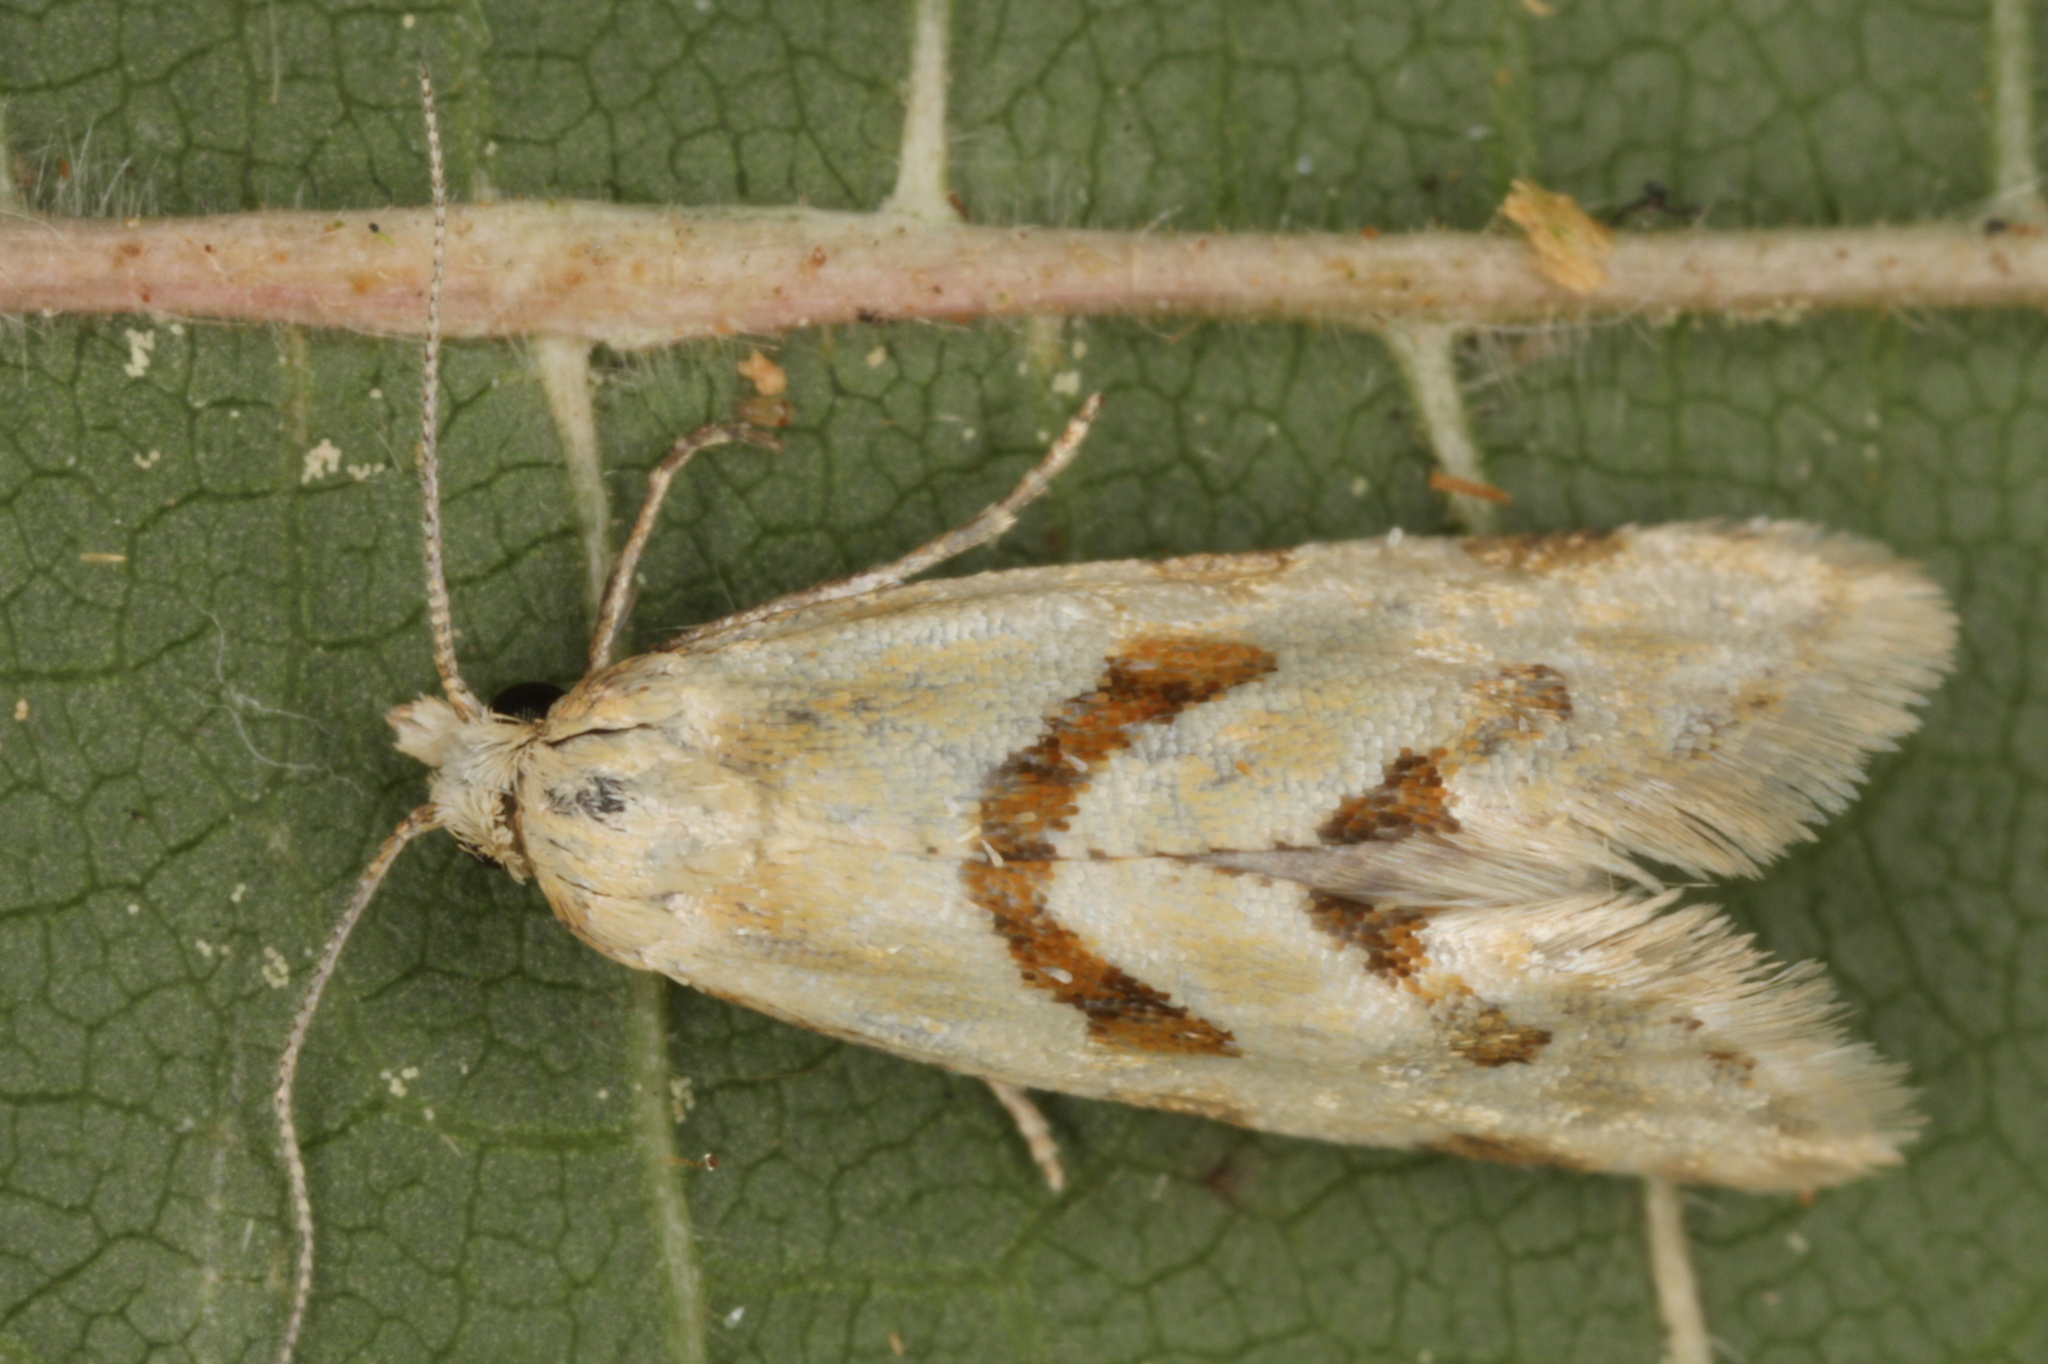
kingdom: Animalia
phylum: Arthropoda
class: Insecta
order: Lepidoptera
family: Tortricidae
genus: Aethes
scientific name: Aethes smeathmanniana
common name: Yarrow conch
